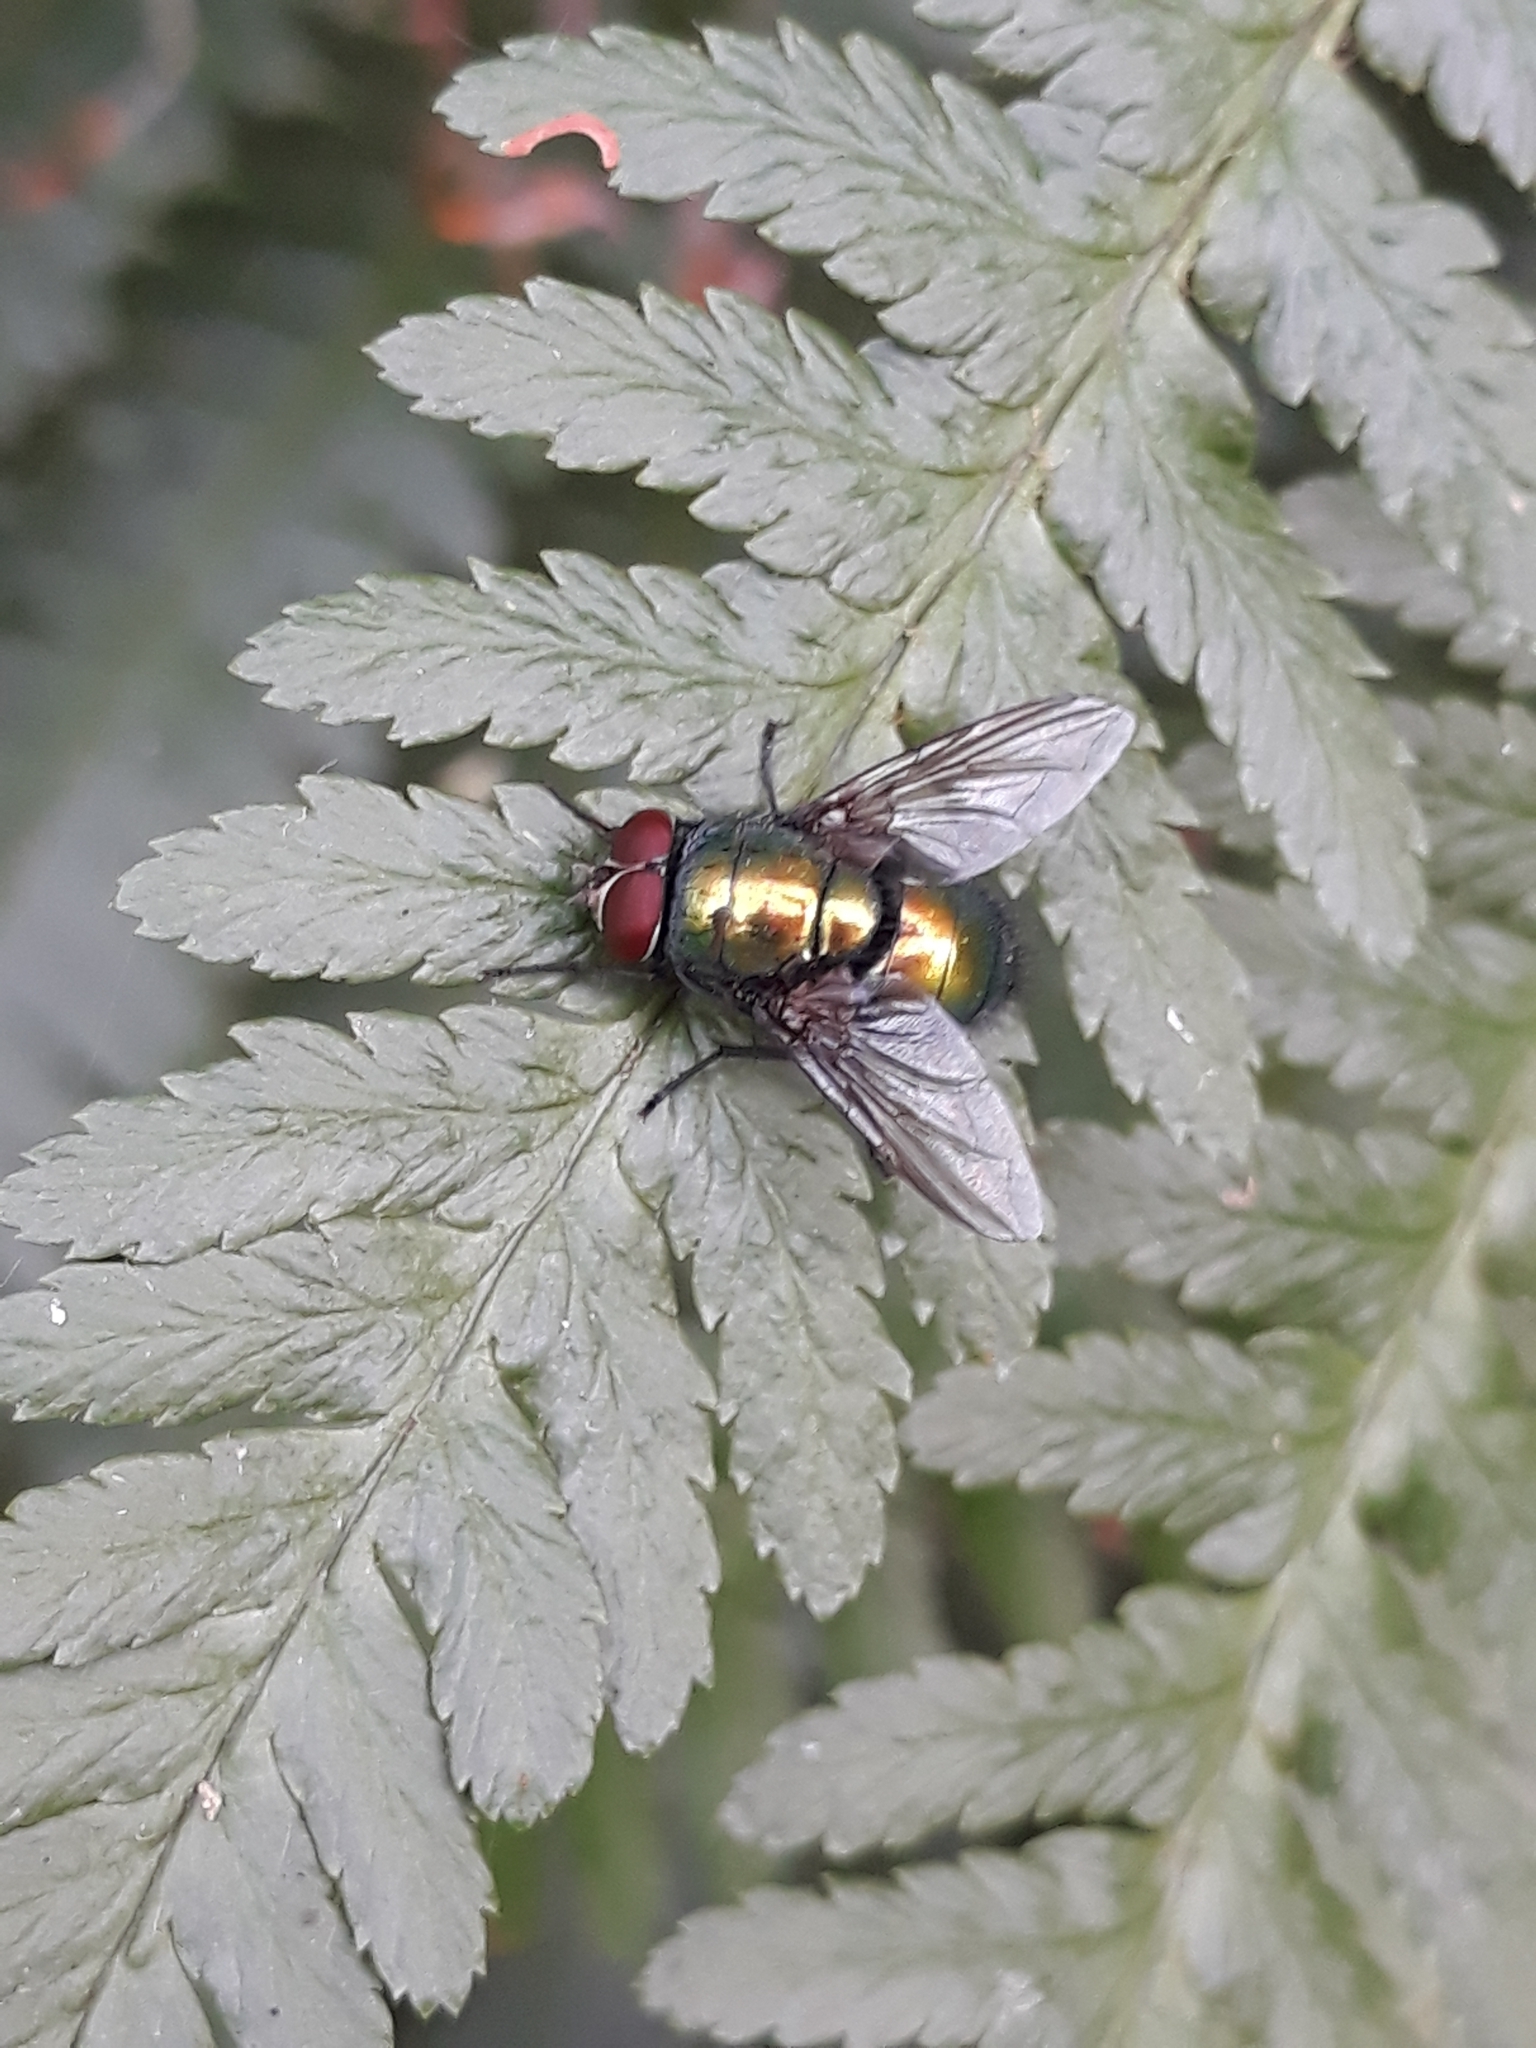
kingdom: Animalia
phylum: Arthropoda
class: Insecta
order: Diptera
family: Calliphoridae
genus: Lucilia
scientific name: Lucilia caesar
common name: Blow fly
